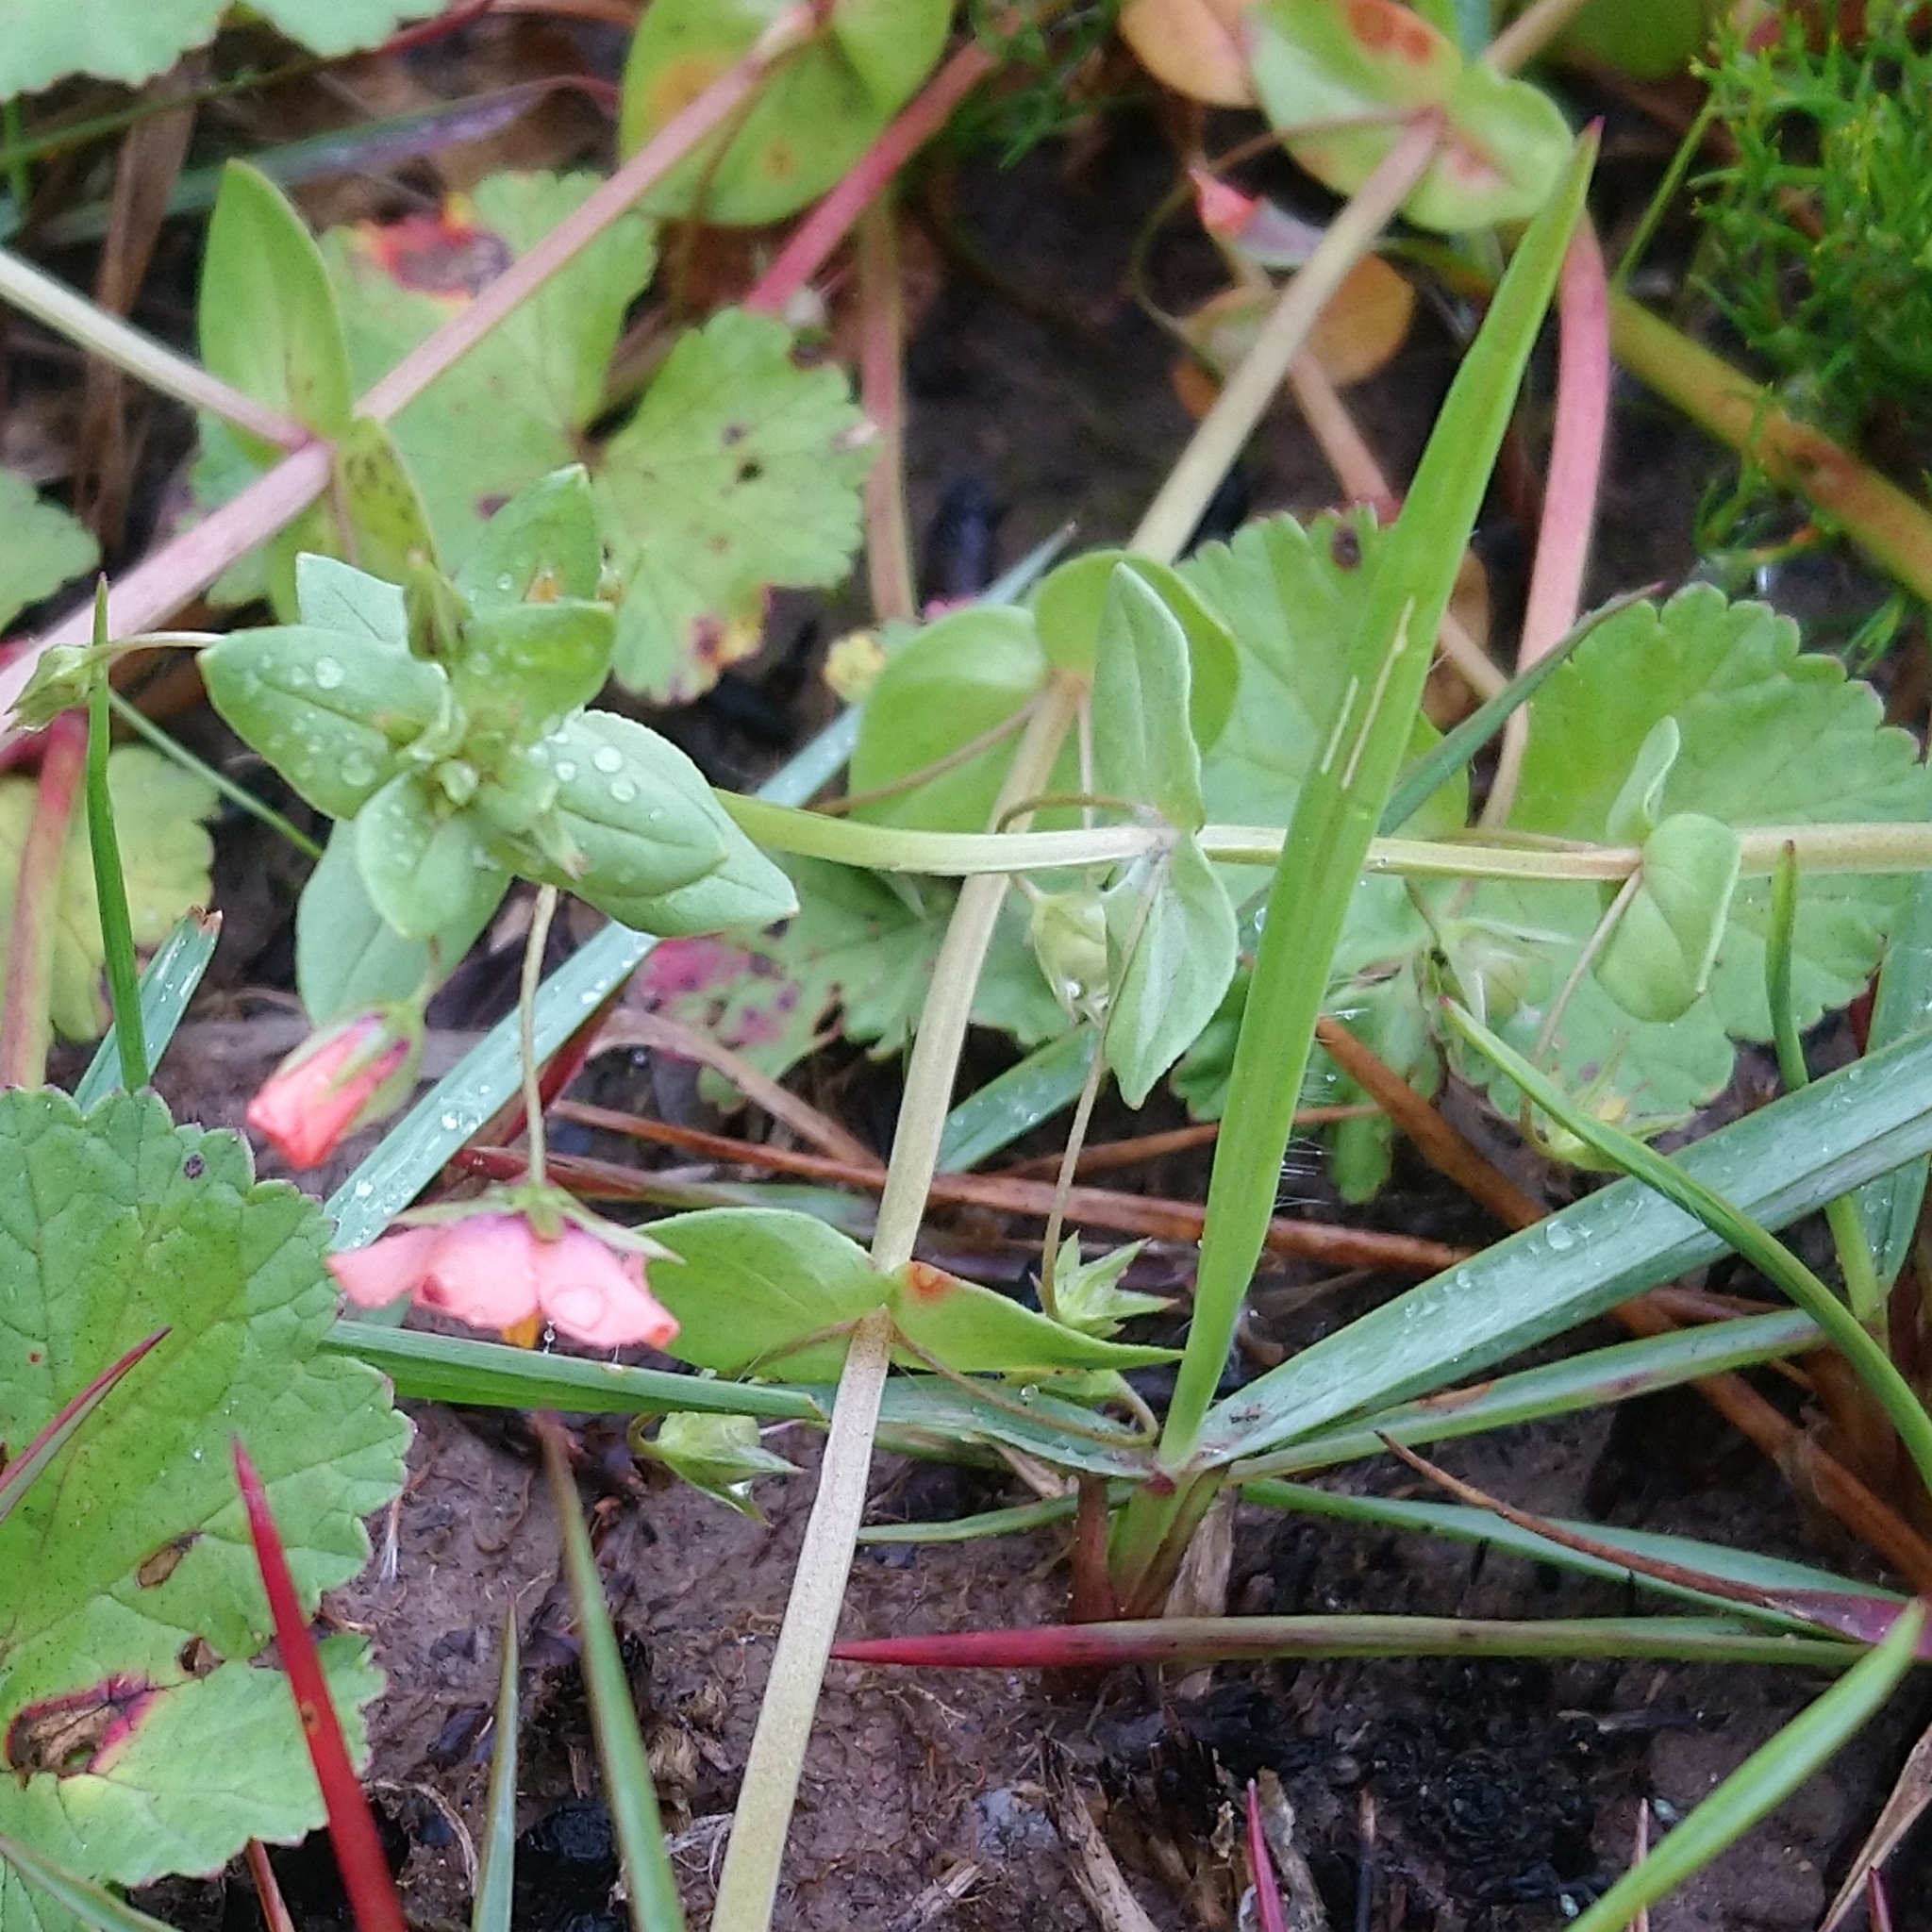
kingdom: Plantae
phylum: Tracheophyta
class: Magnoliopsida
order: Ericales
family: Primulaceae
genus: Lysimachia
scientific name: Lysimachia arvensis
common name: Scarlet pimpernel
